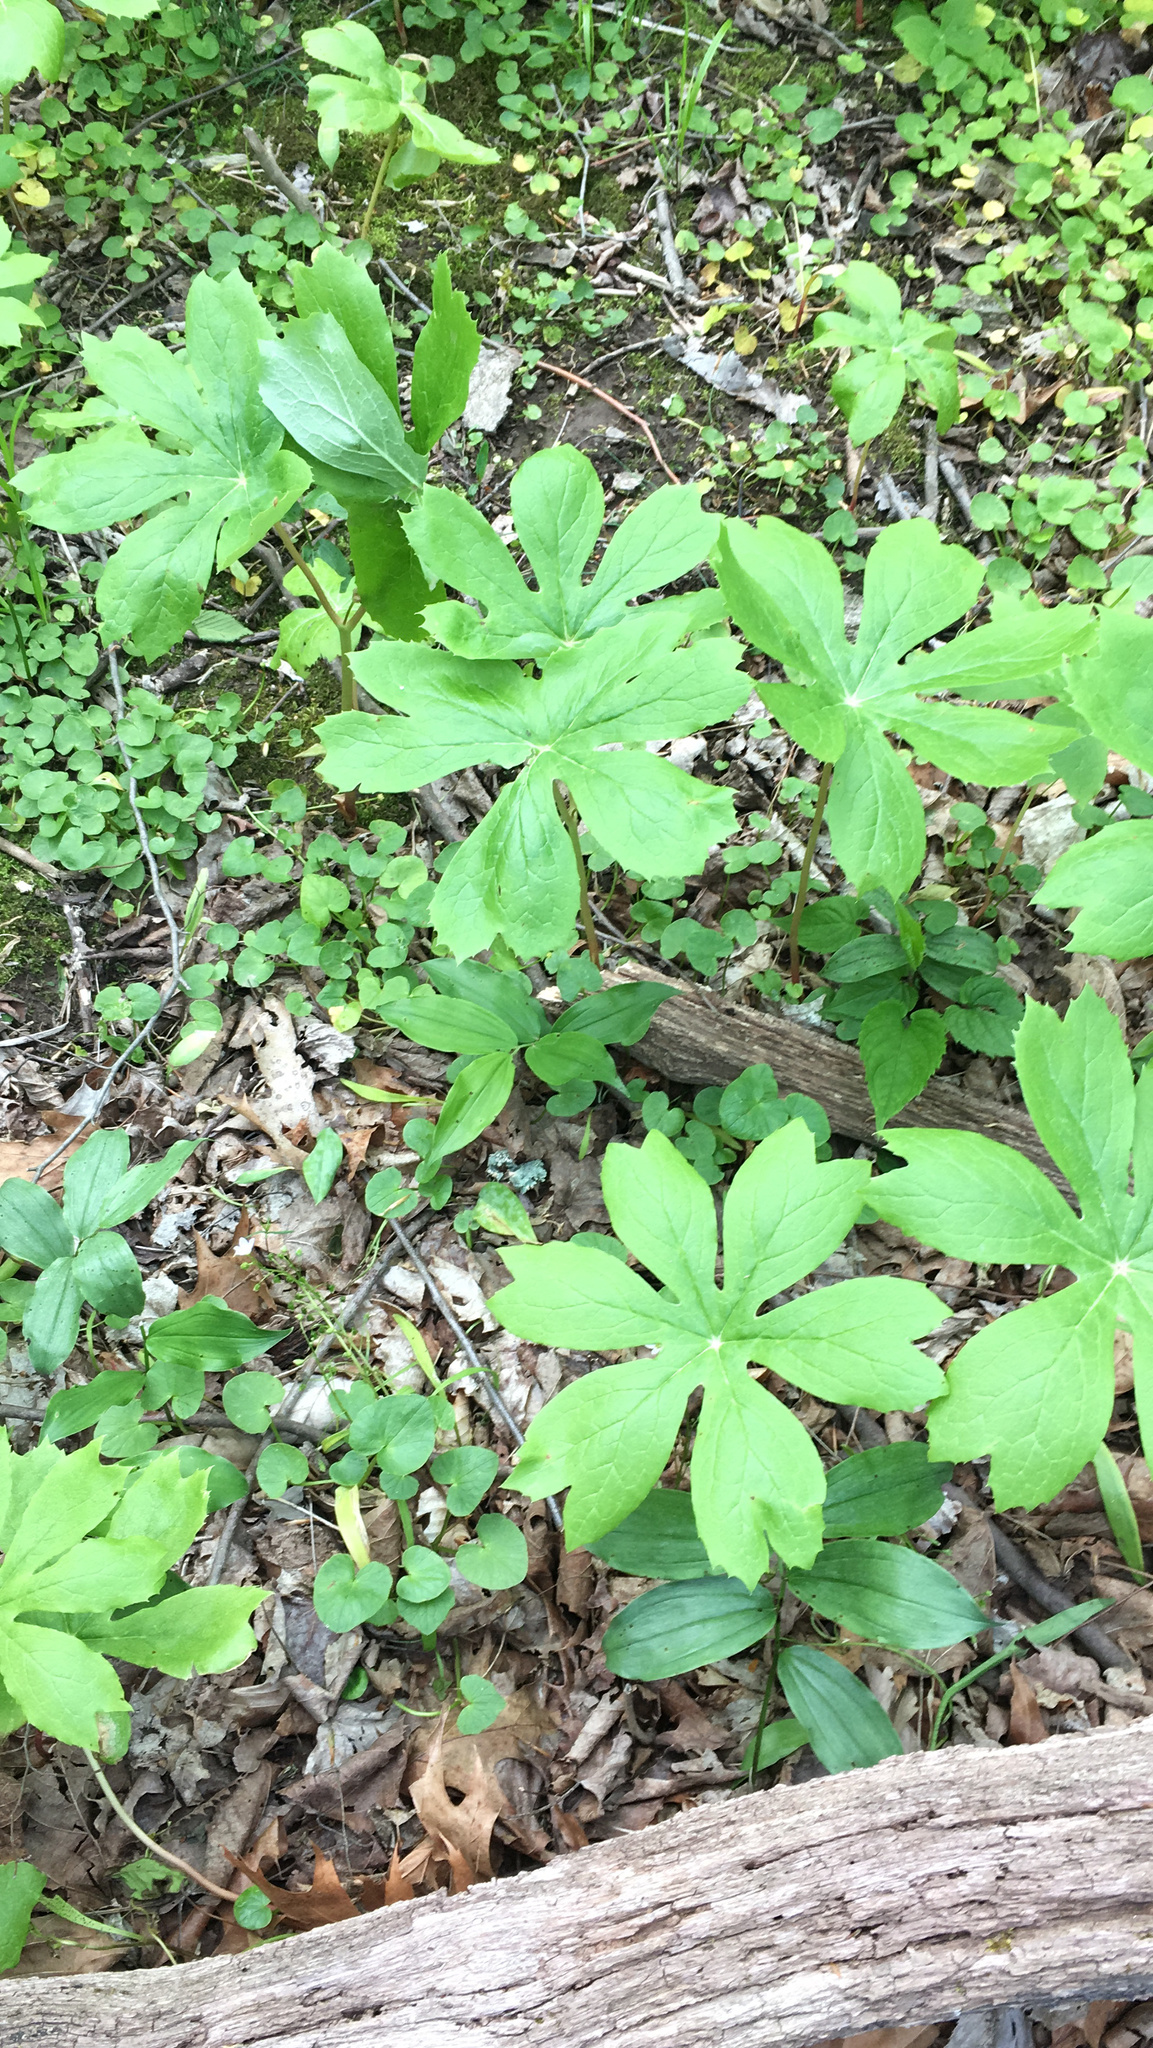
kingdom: Plantae
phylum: Tracheophyta
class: Magnoliopsida
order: Ranunculales
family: Berberidaceae
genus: Podophyllum
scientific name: Podophyllum peltatum
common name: Wild mandrake
